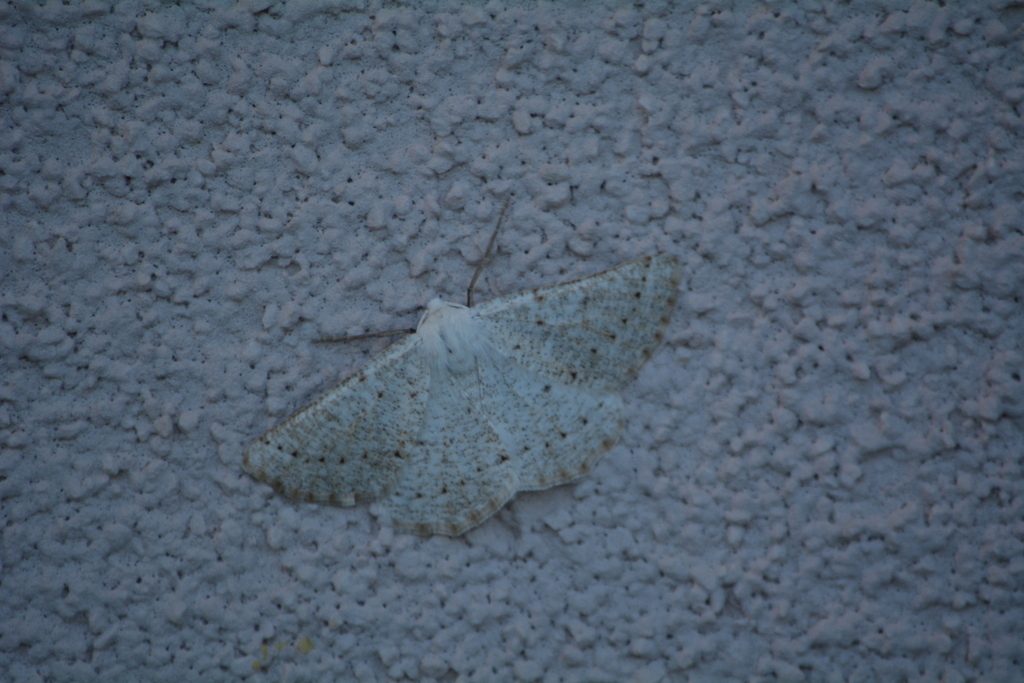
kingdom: Animalia
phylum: Arthropoda
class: Insecta
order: Lepidoptera
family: Geometridae
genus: Dyscia
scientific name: Dyscia raunaria
